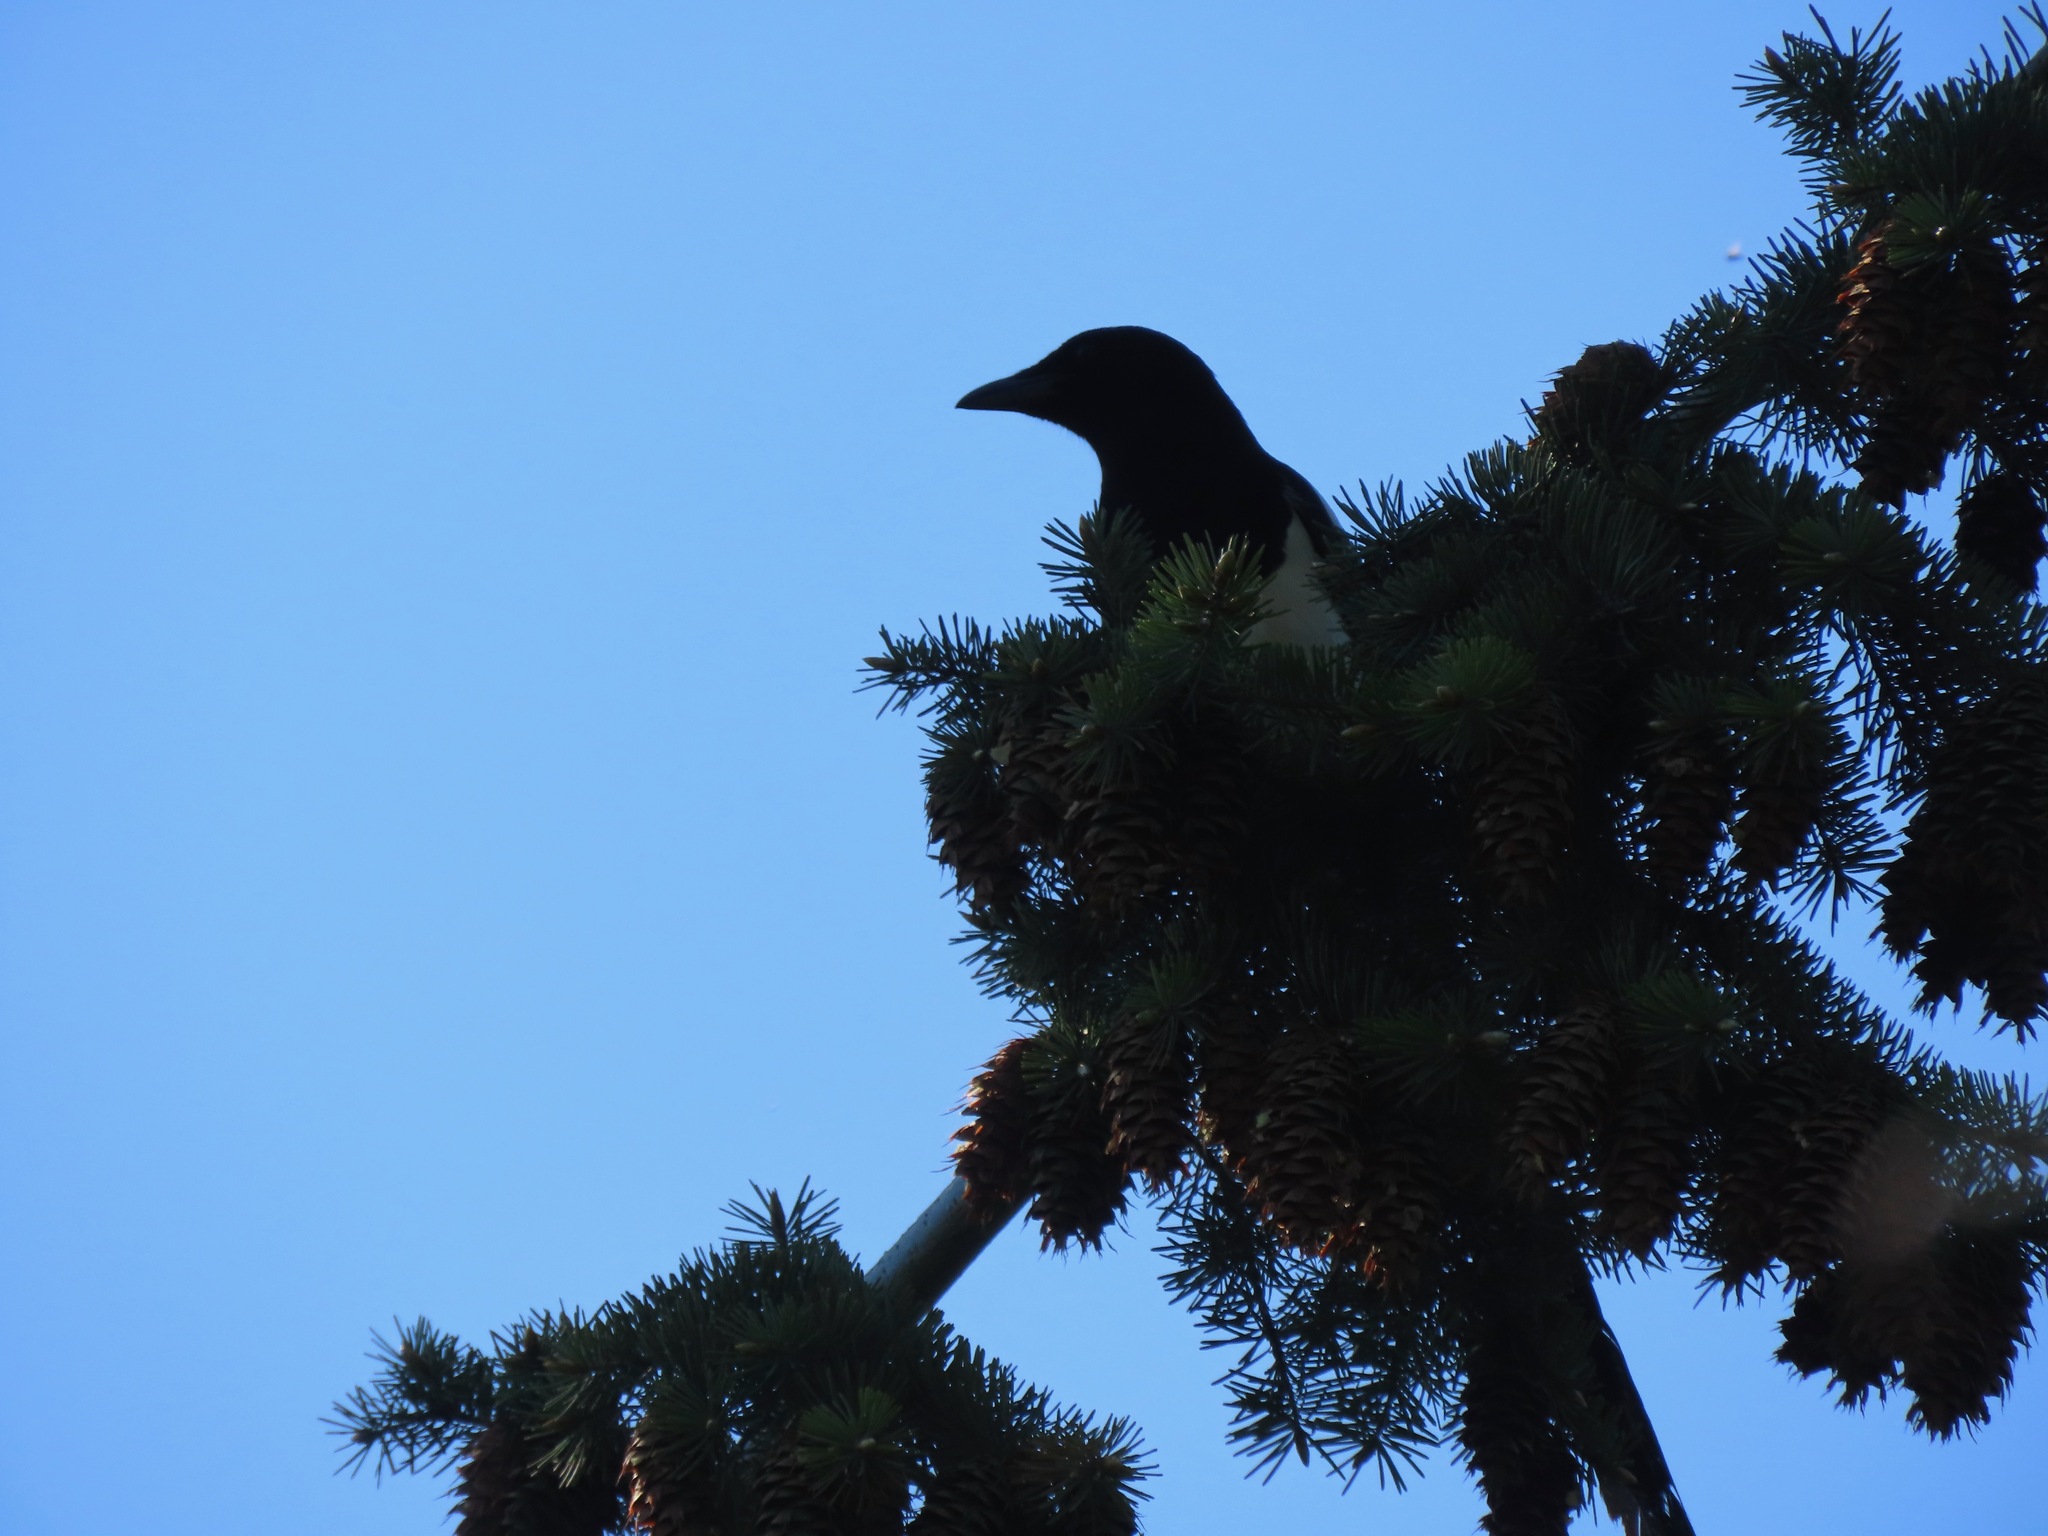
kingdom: Animalia
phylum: Chordata
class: Aves
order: Passeriformes
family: Corvidae
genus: Pica
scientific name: Pica hudsonia
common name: Black-billed magpie
